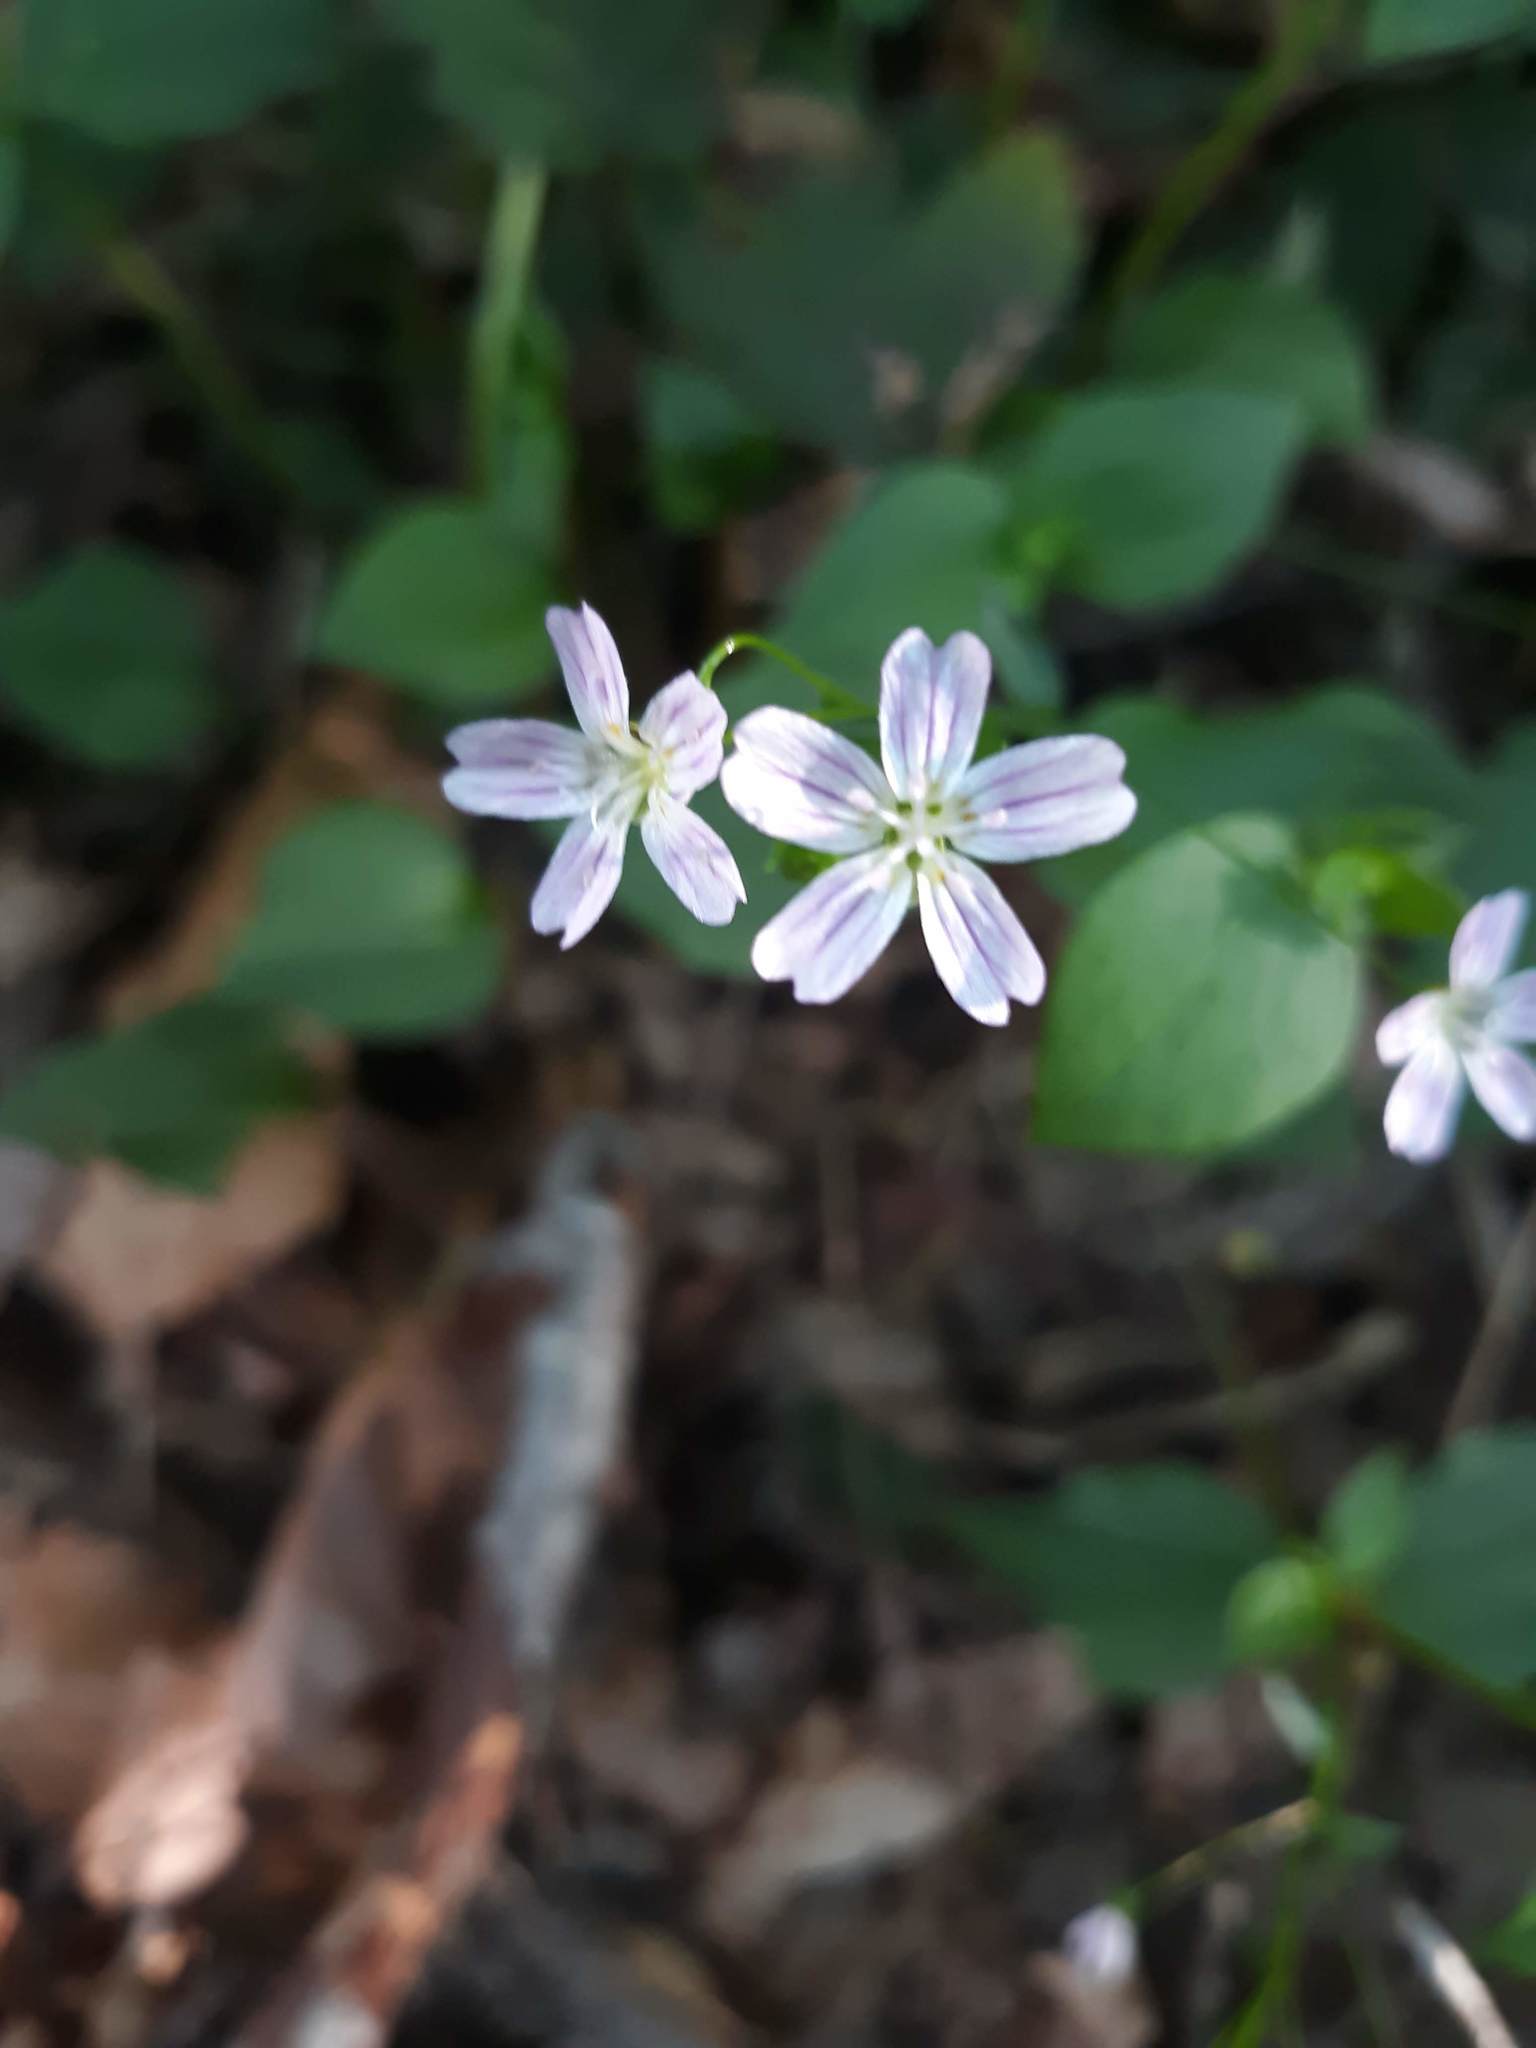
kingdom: Plantae
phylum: Tracheophyta
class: Magnoliopsida
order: Caryophyllales
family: Montiaceae
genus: Claytonia
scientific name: Claytonia sibirica
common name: Pink purslane
